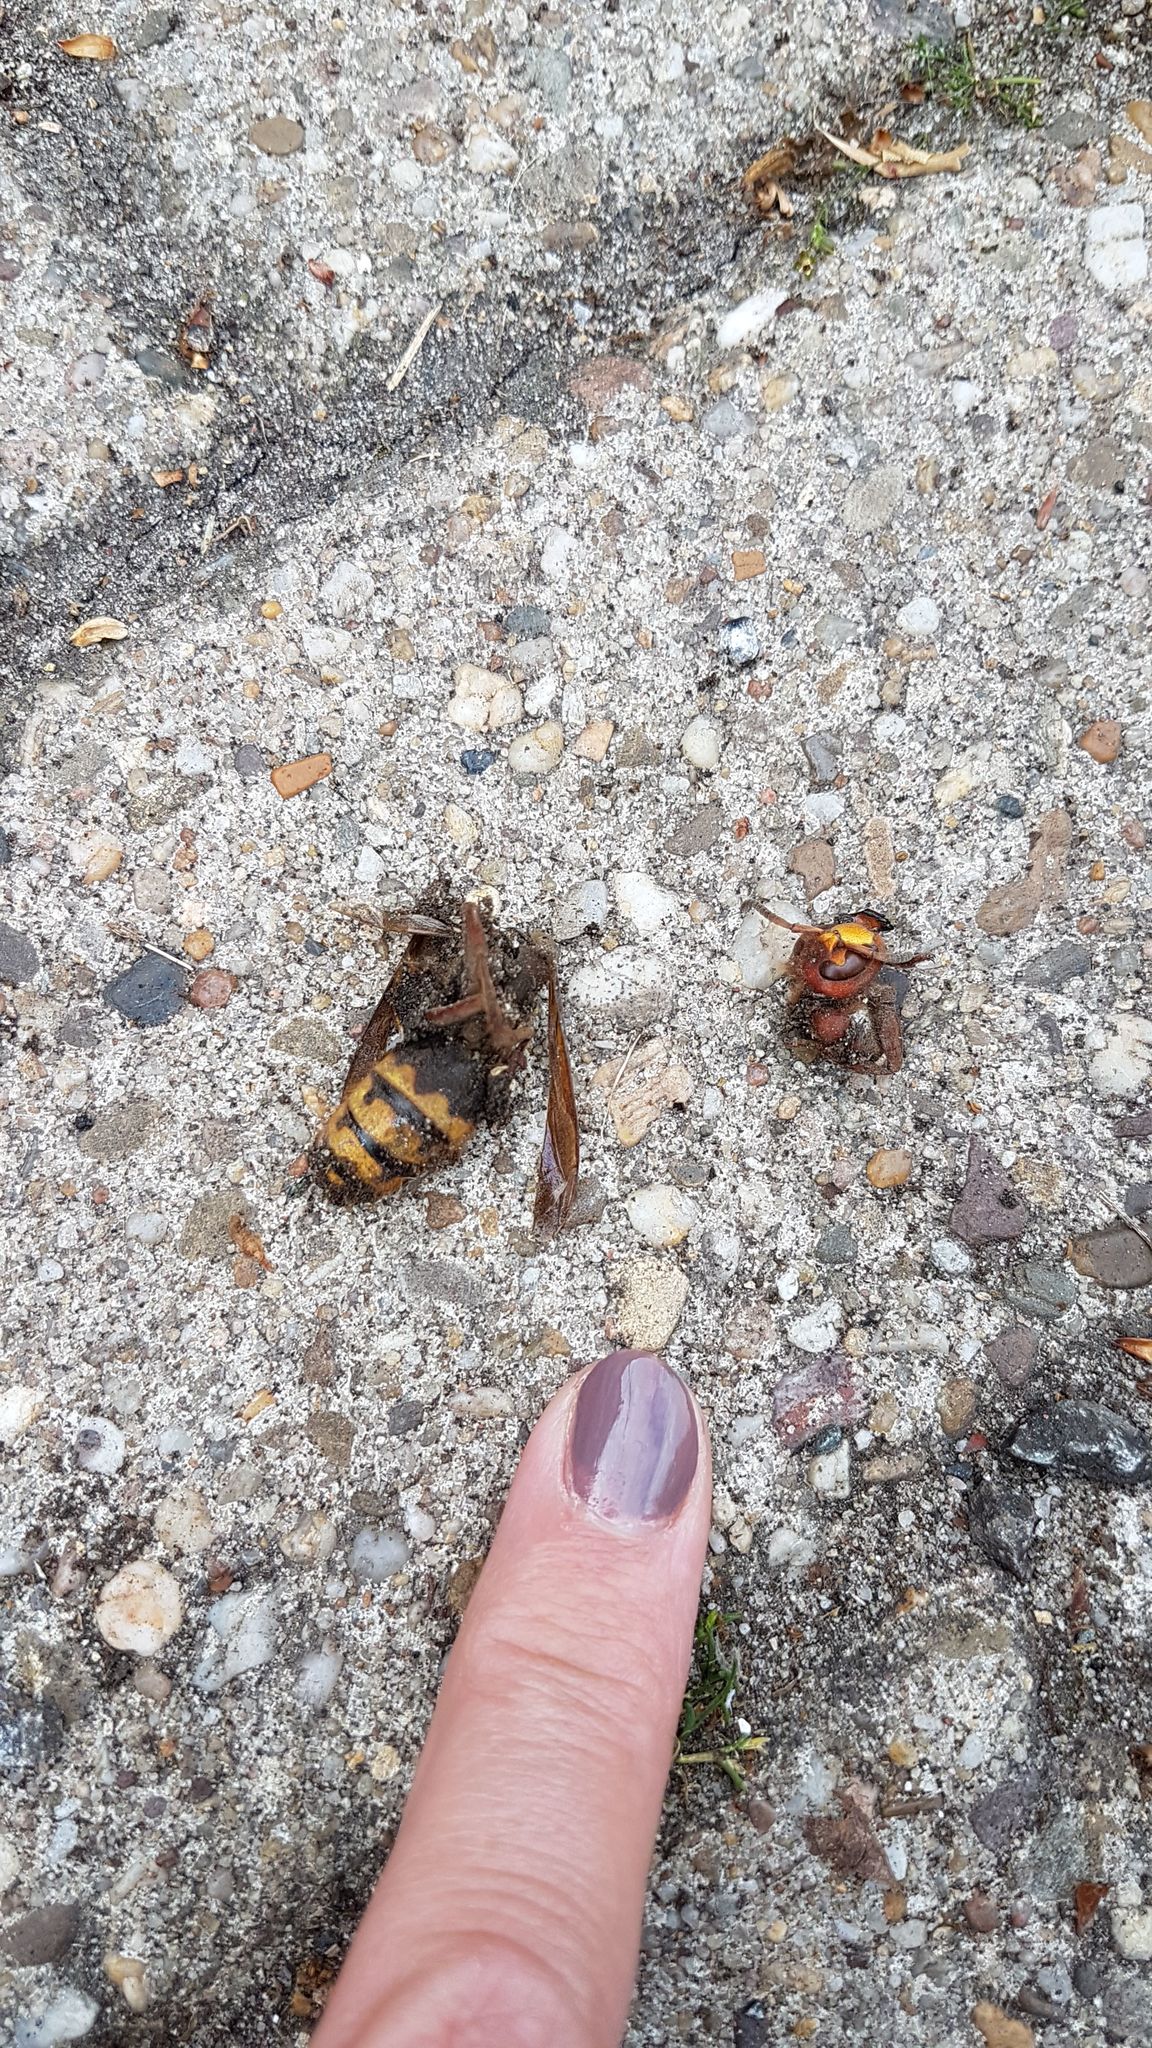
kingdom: Animalia
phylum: Arthropoda
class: Insecta
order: Hymenoptera
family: Vespidae
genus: Vespa
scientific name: Vespa crabro
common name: Hornet
